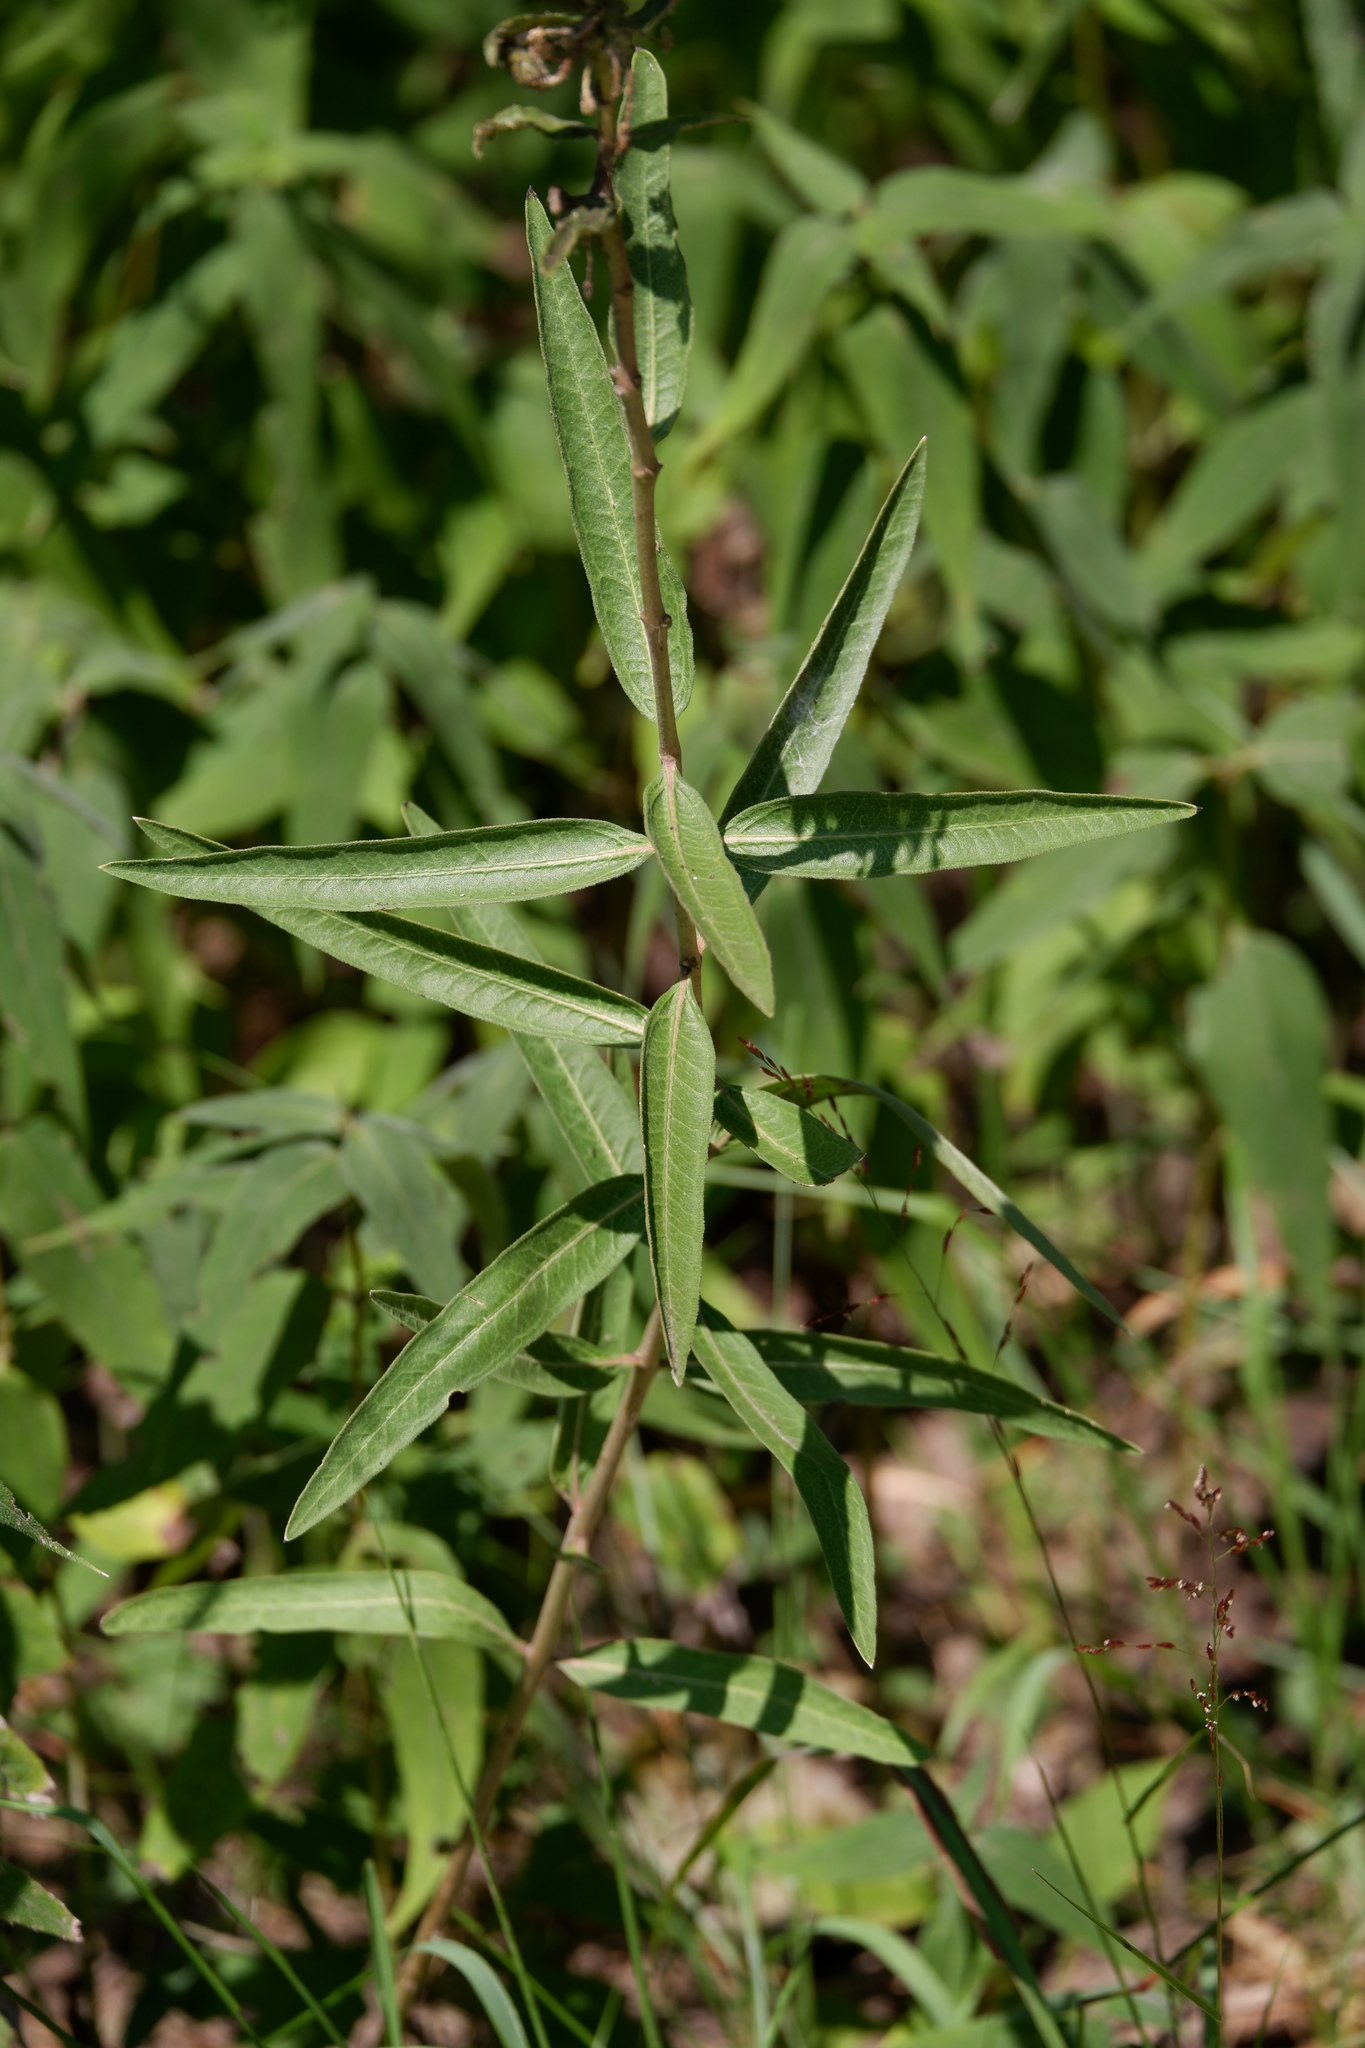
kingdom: Plantae
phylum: Tracheophyta
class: Magnoliopsida
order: Gentianales
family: Apocynaceae
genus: Asclepias
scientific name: Asclepias viridiflora
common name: Green comet milkweed
